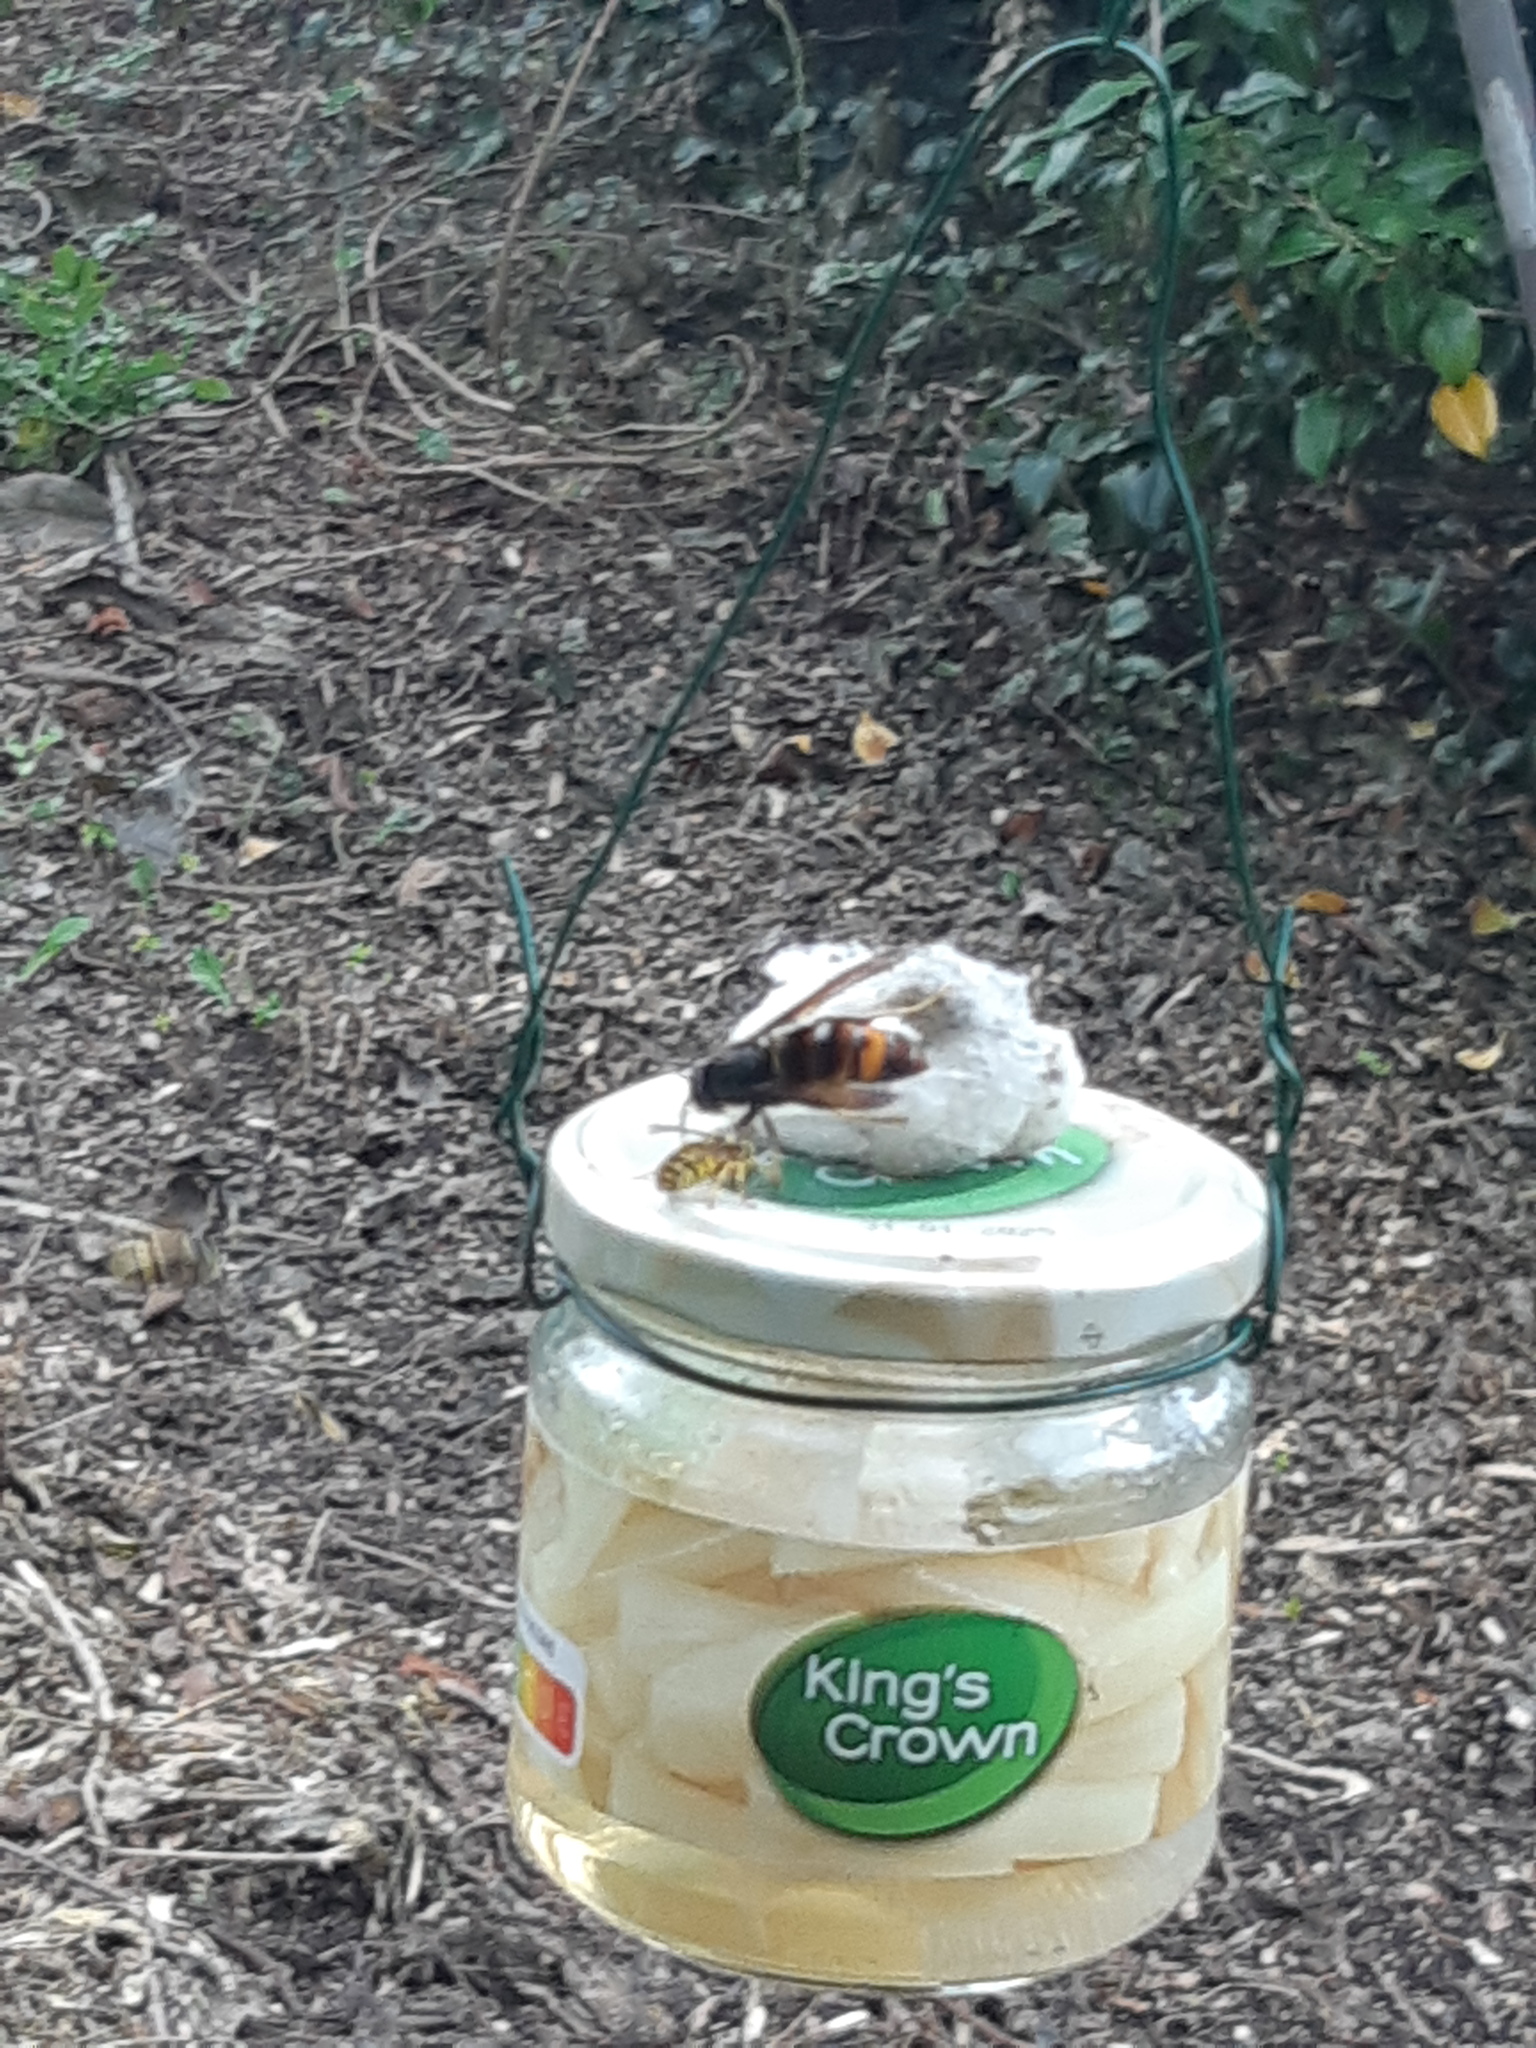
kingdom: Animalia
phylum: Arthropoda
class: Insecta
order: Hymenoptera
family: Vespidae
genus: Vespa
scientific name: Vespa velutina
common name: Asian hornet
